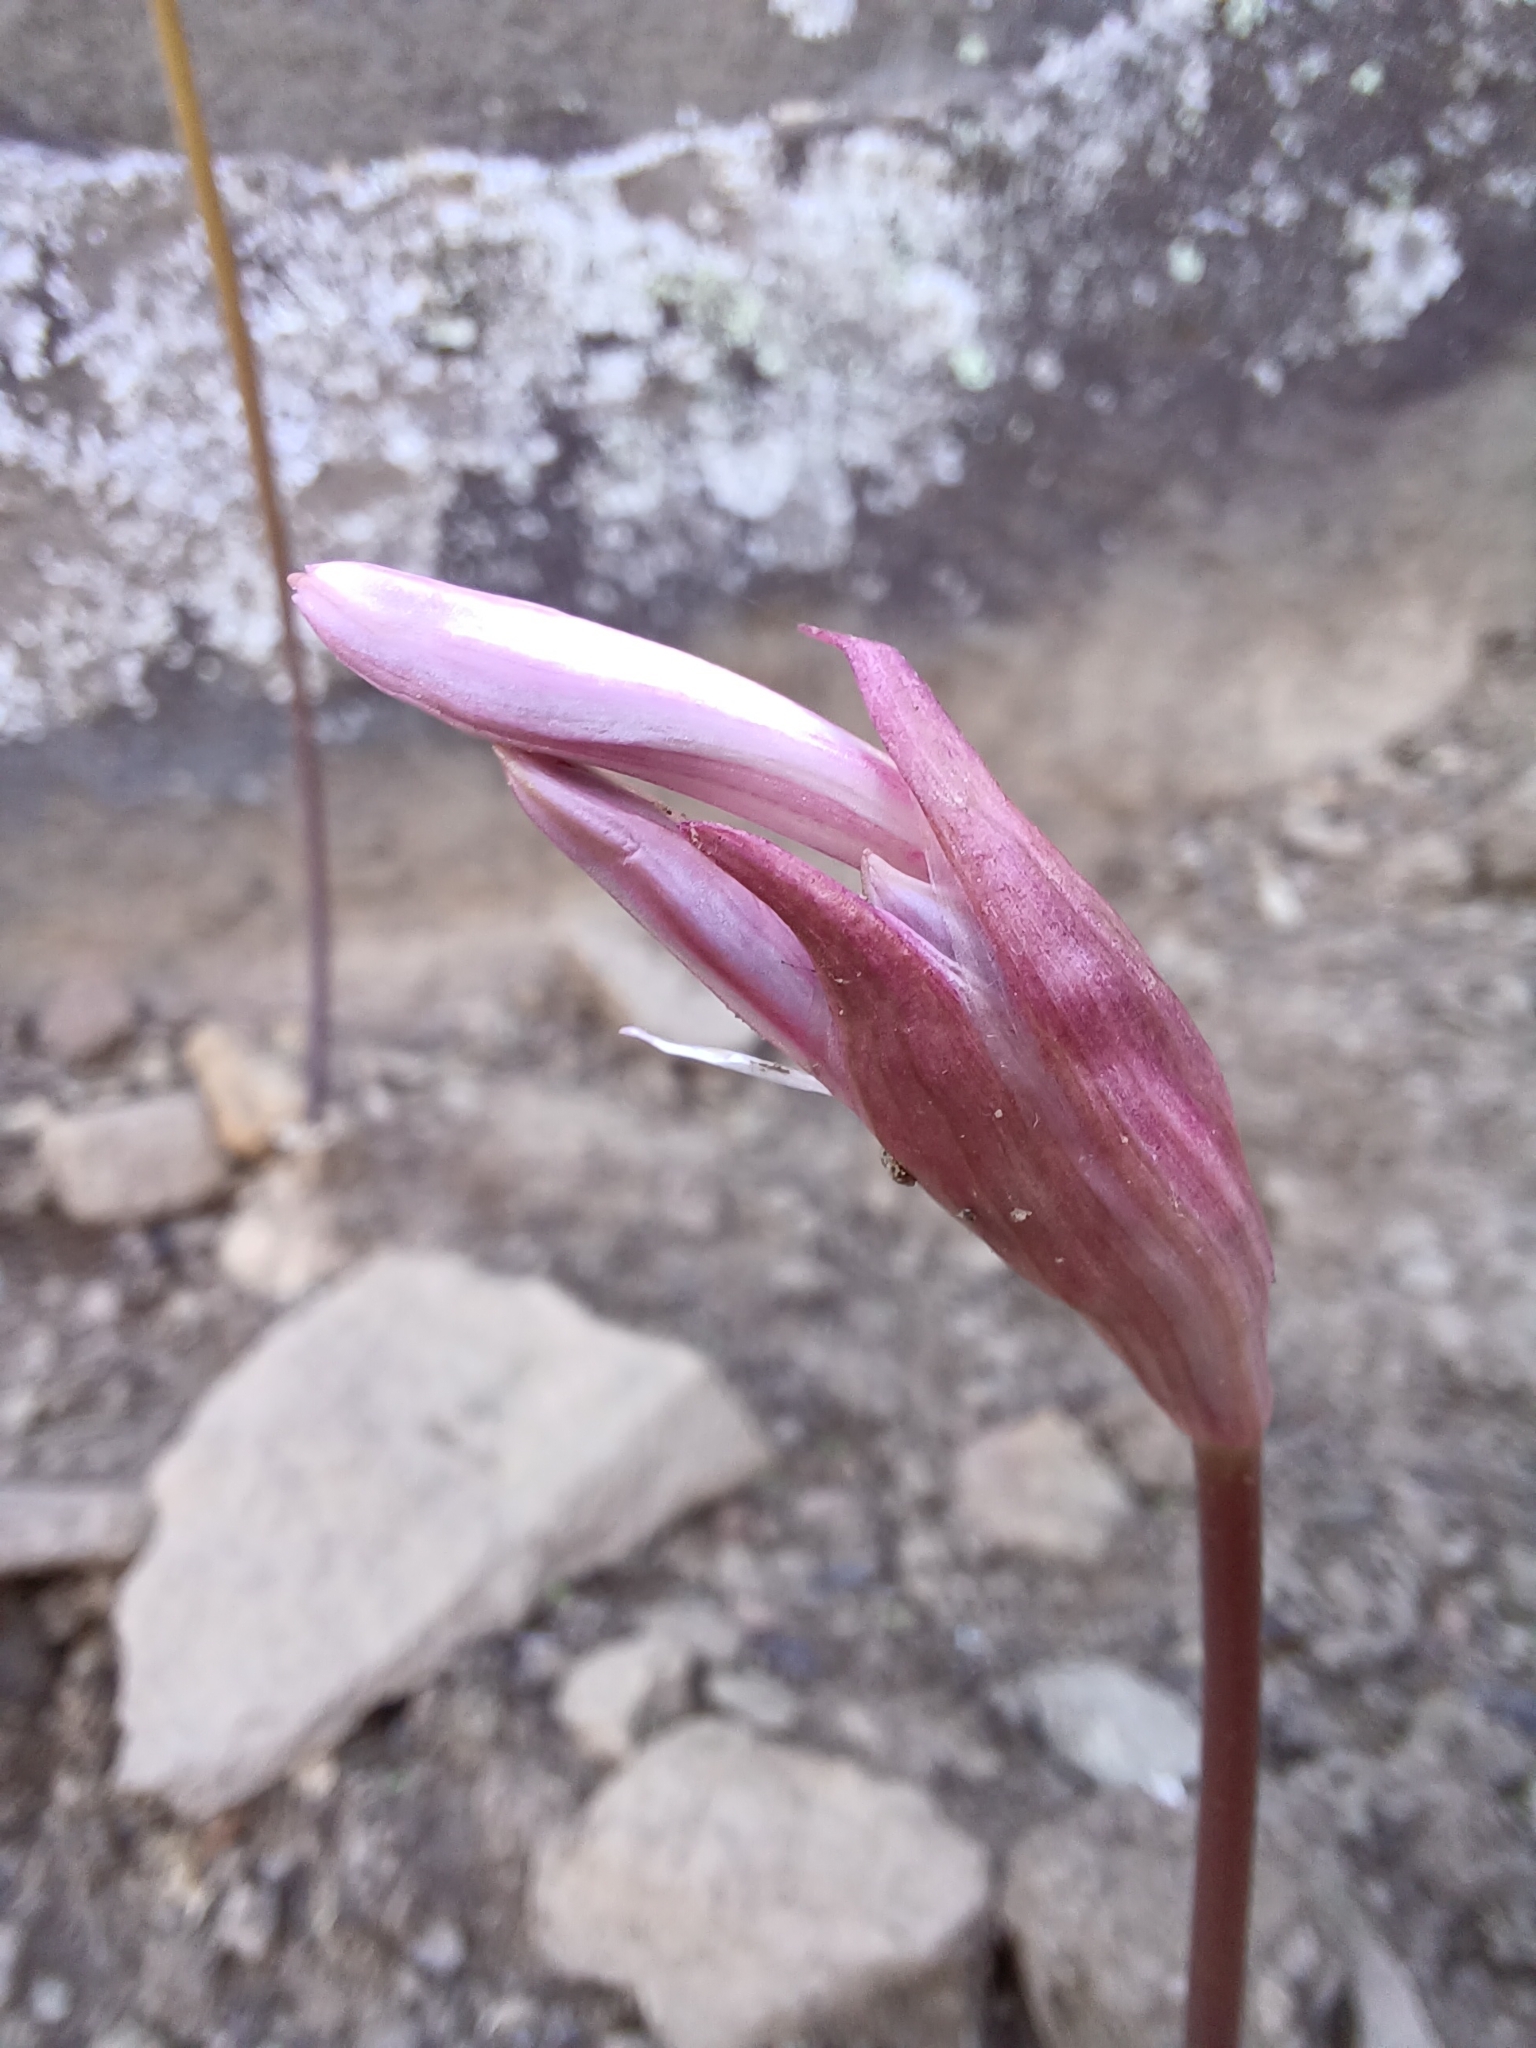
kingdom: Plantae
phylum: Tracheophyta
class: Liliopsida
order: Asparagales
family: Amaryllidaceae
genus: Nerine
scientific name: Nerine humilis
